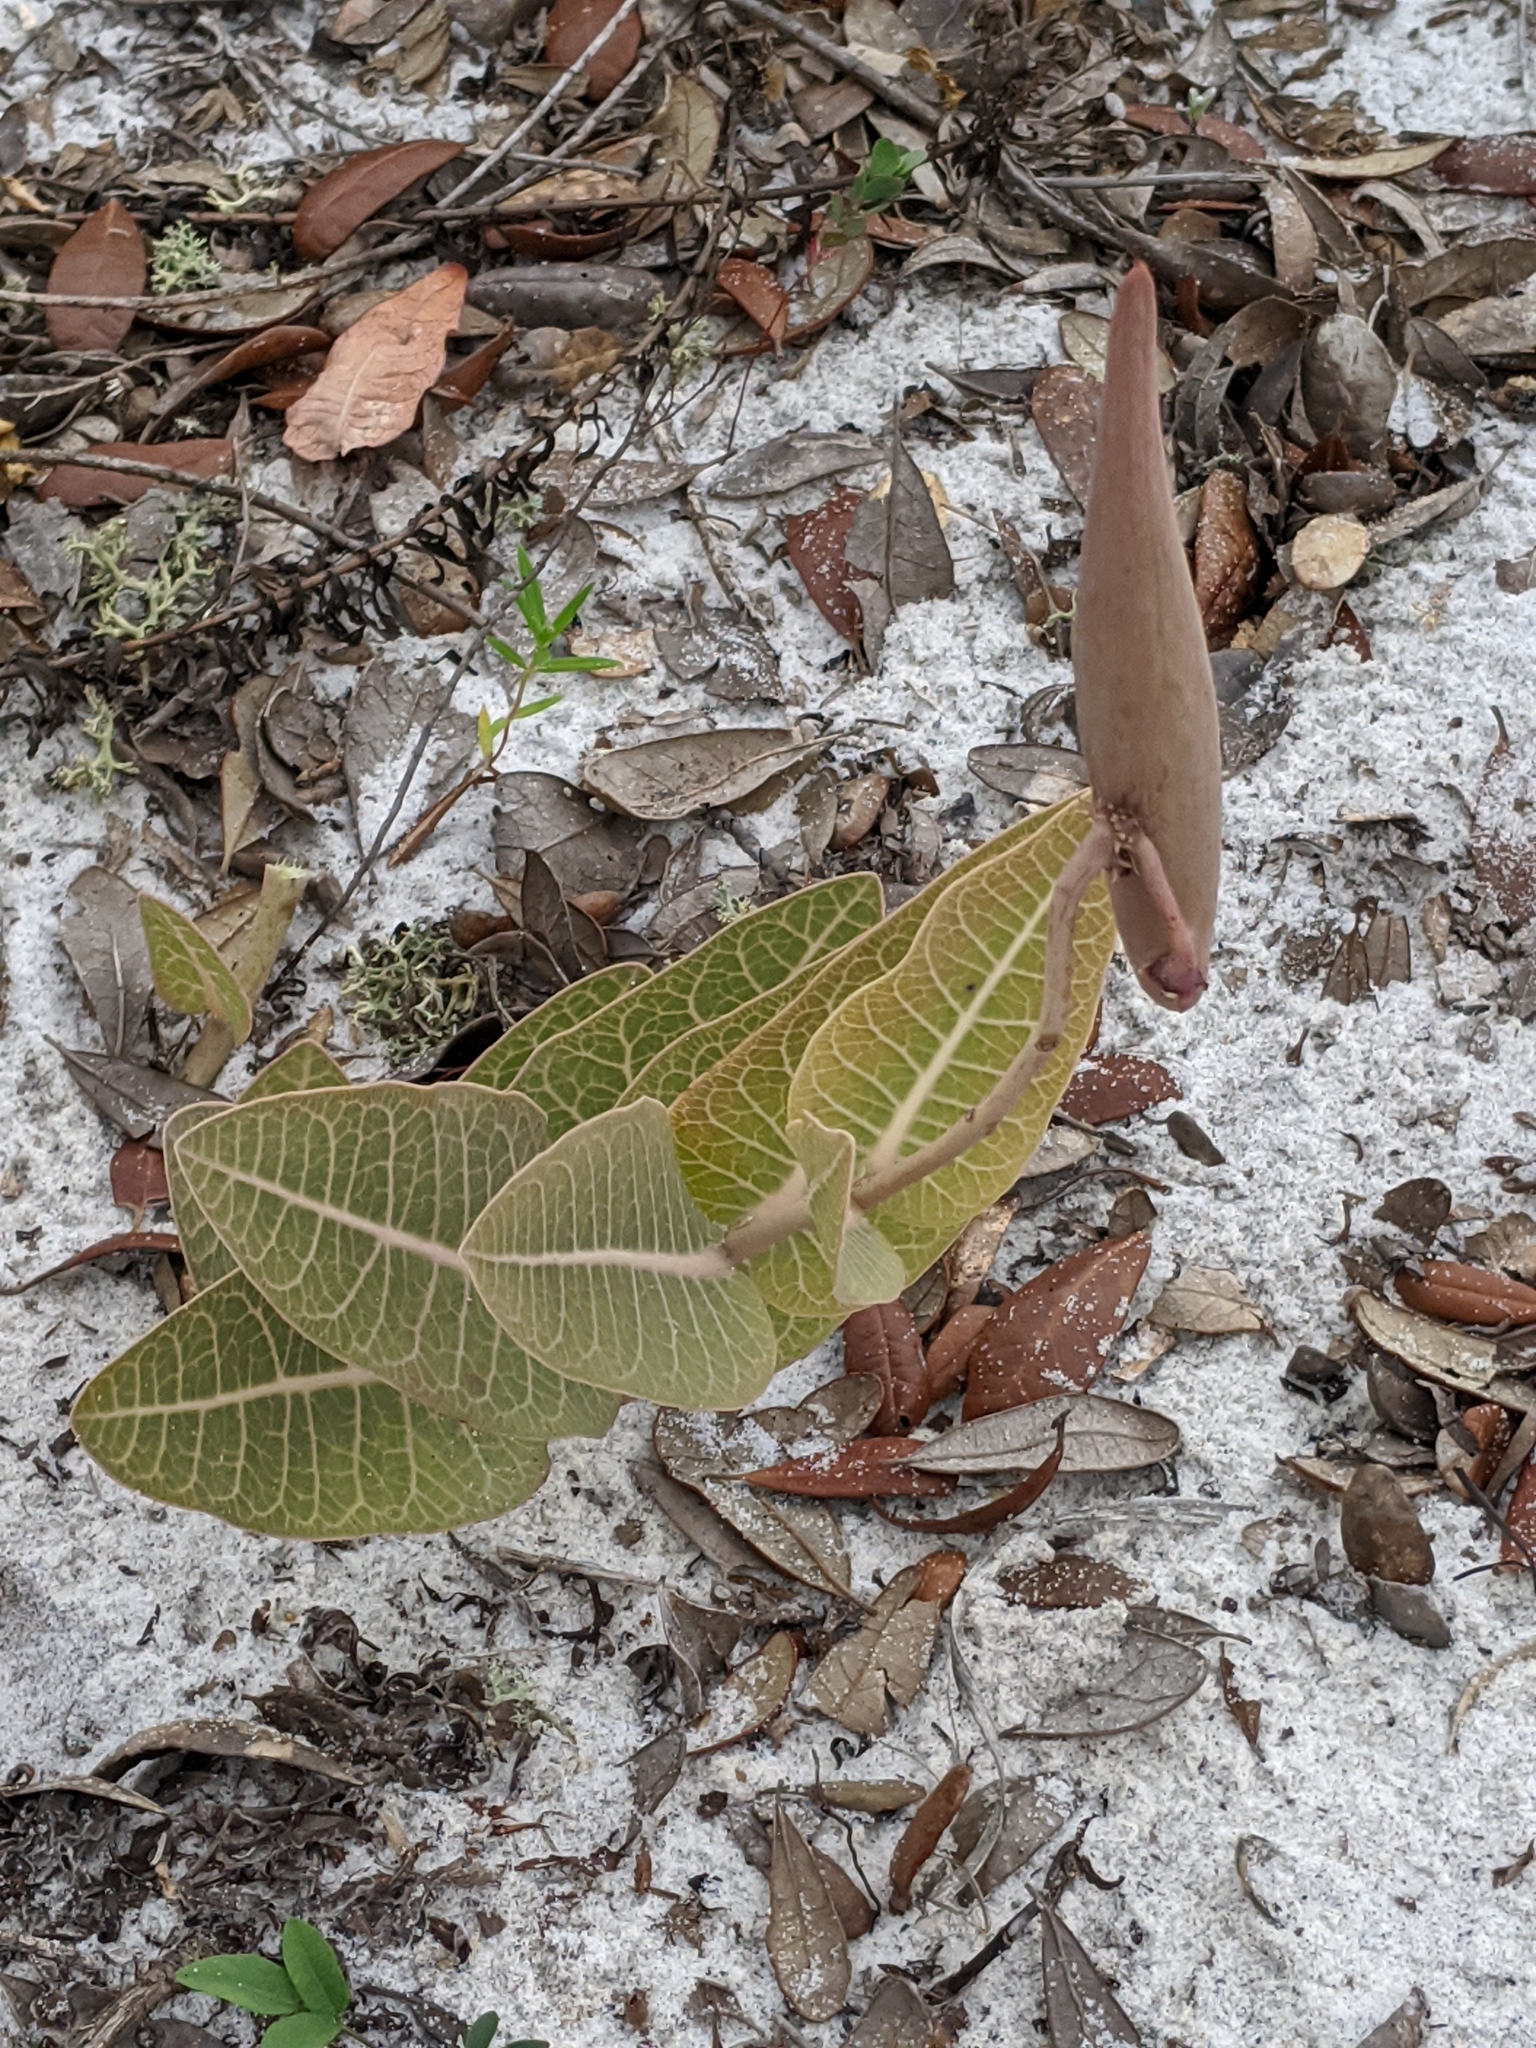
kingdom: Plantae
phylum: Tracheophyta
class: Magnoliopsida
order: Gentianales
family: Apocynaceae
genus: Asclepias
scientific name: Asclepias humistrata
